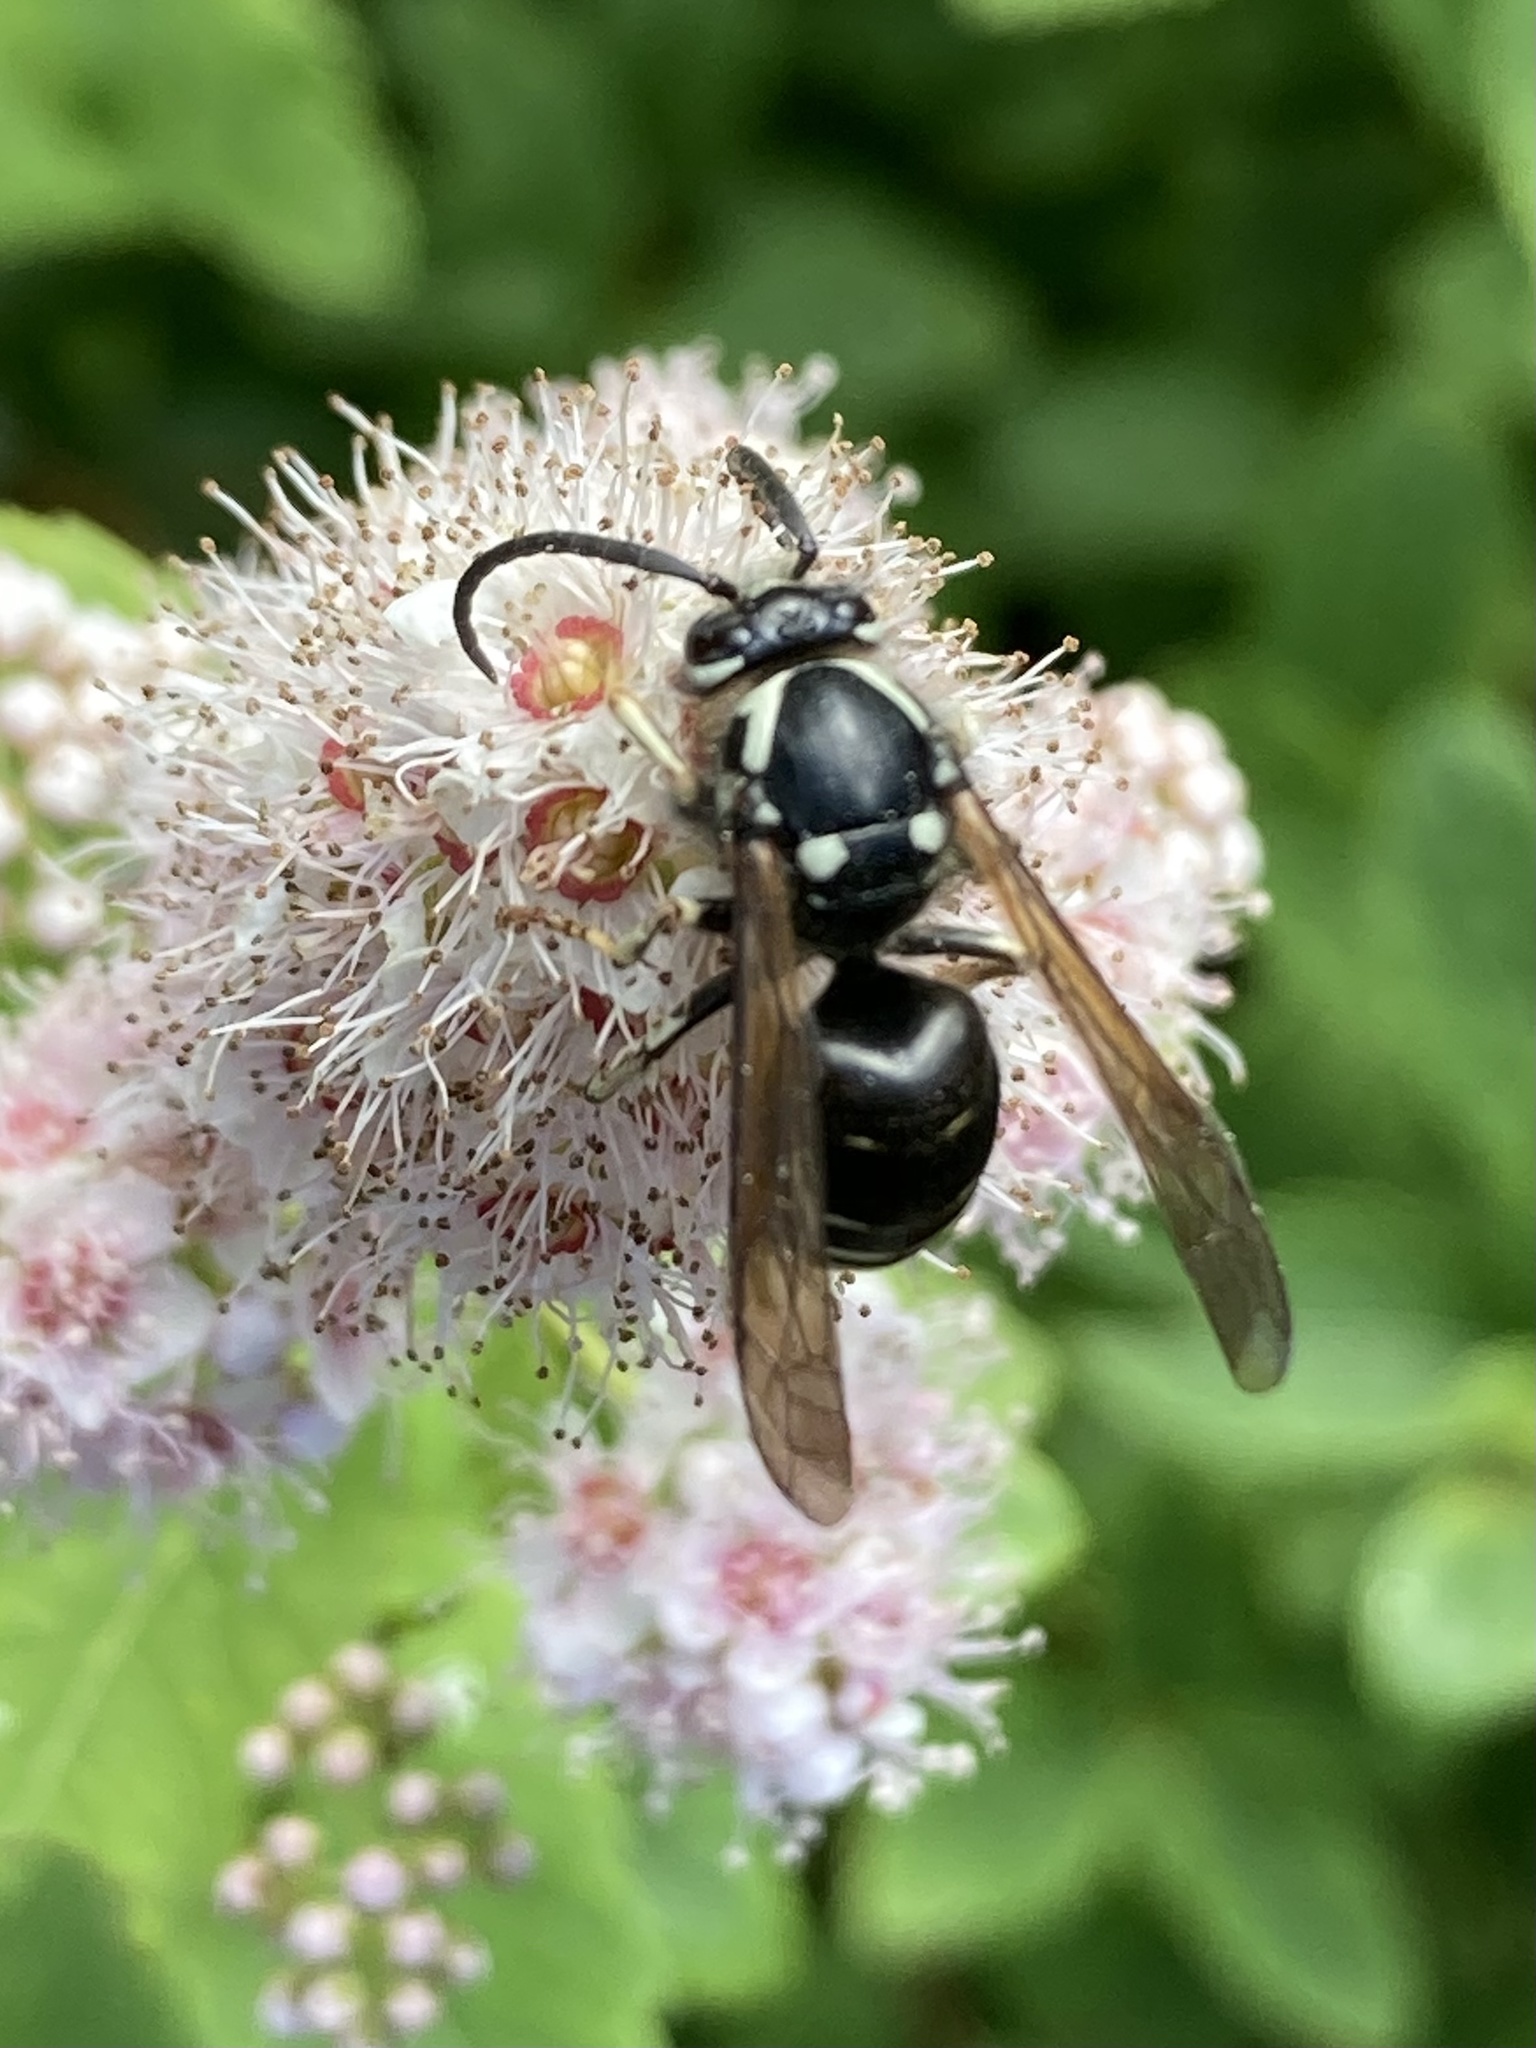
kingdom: Animalia
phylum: Arthropoda
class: Insecta
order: Hymenoptera
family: Vespidae
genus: Dolichovespula
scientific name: Dolichovespula adulterina
